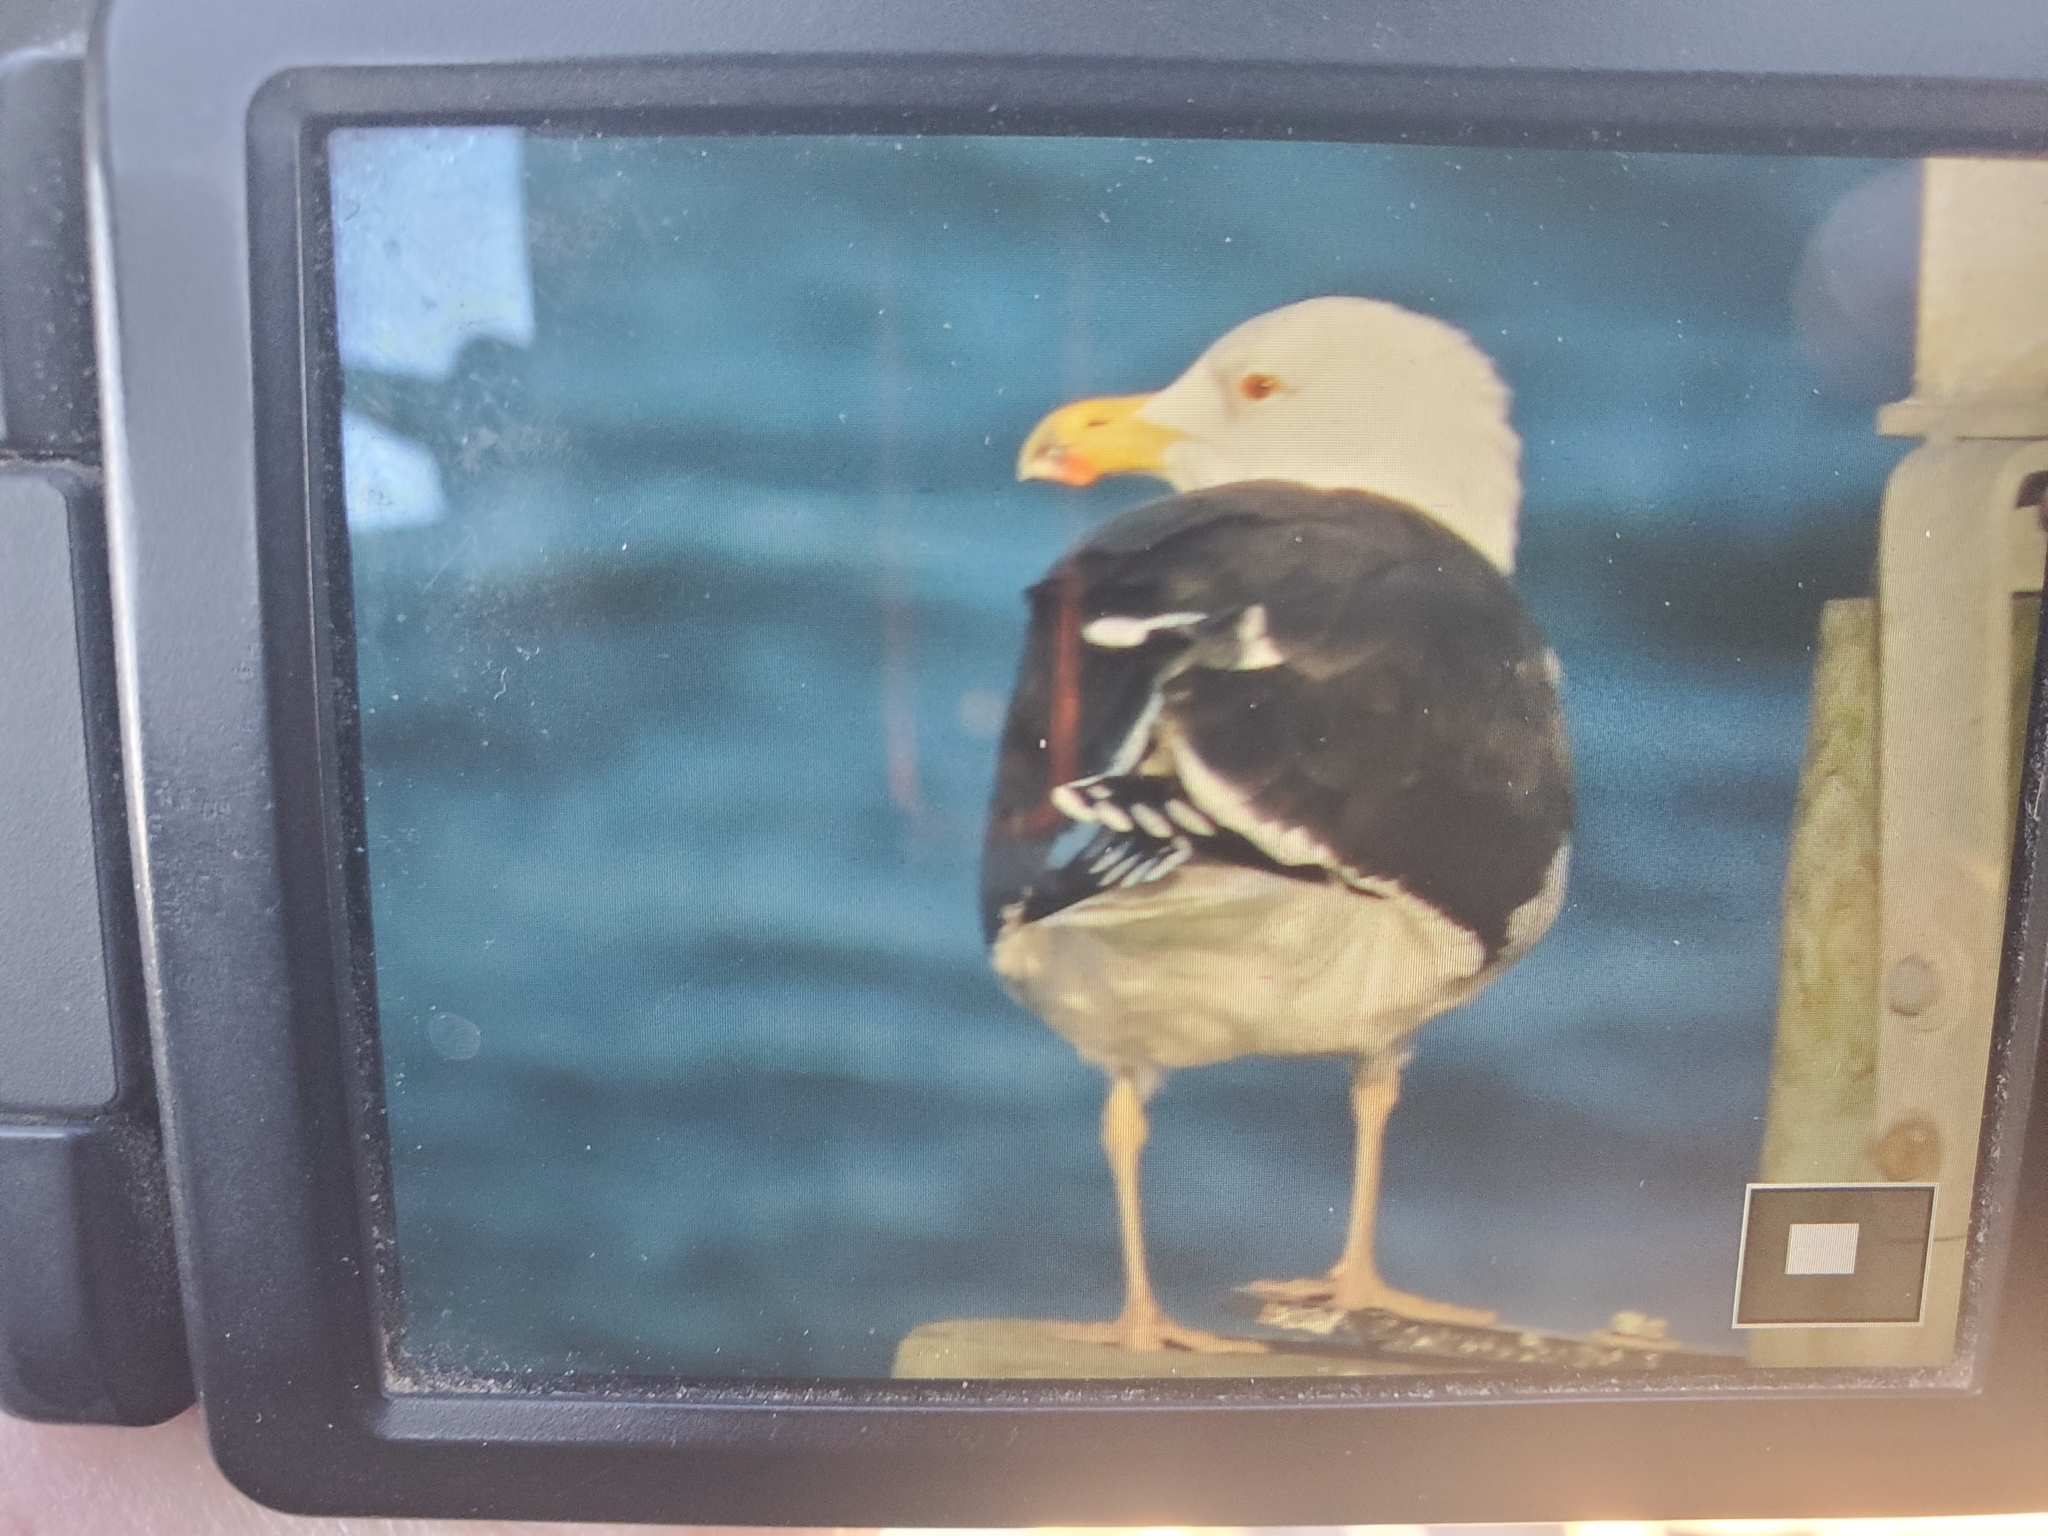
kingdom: Animalia
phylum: Chordata
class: Aves
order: Charadriiformes
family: Laridae
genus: Larus
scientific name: Larus marinus
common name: Great black-backed gull
